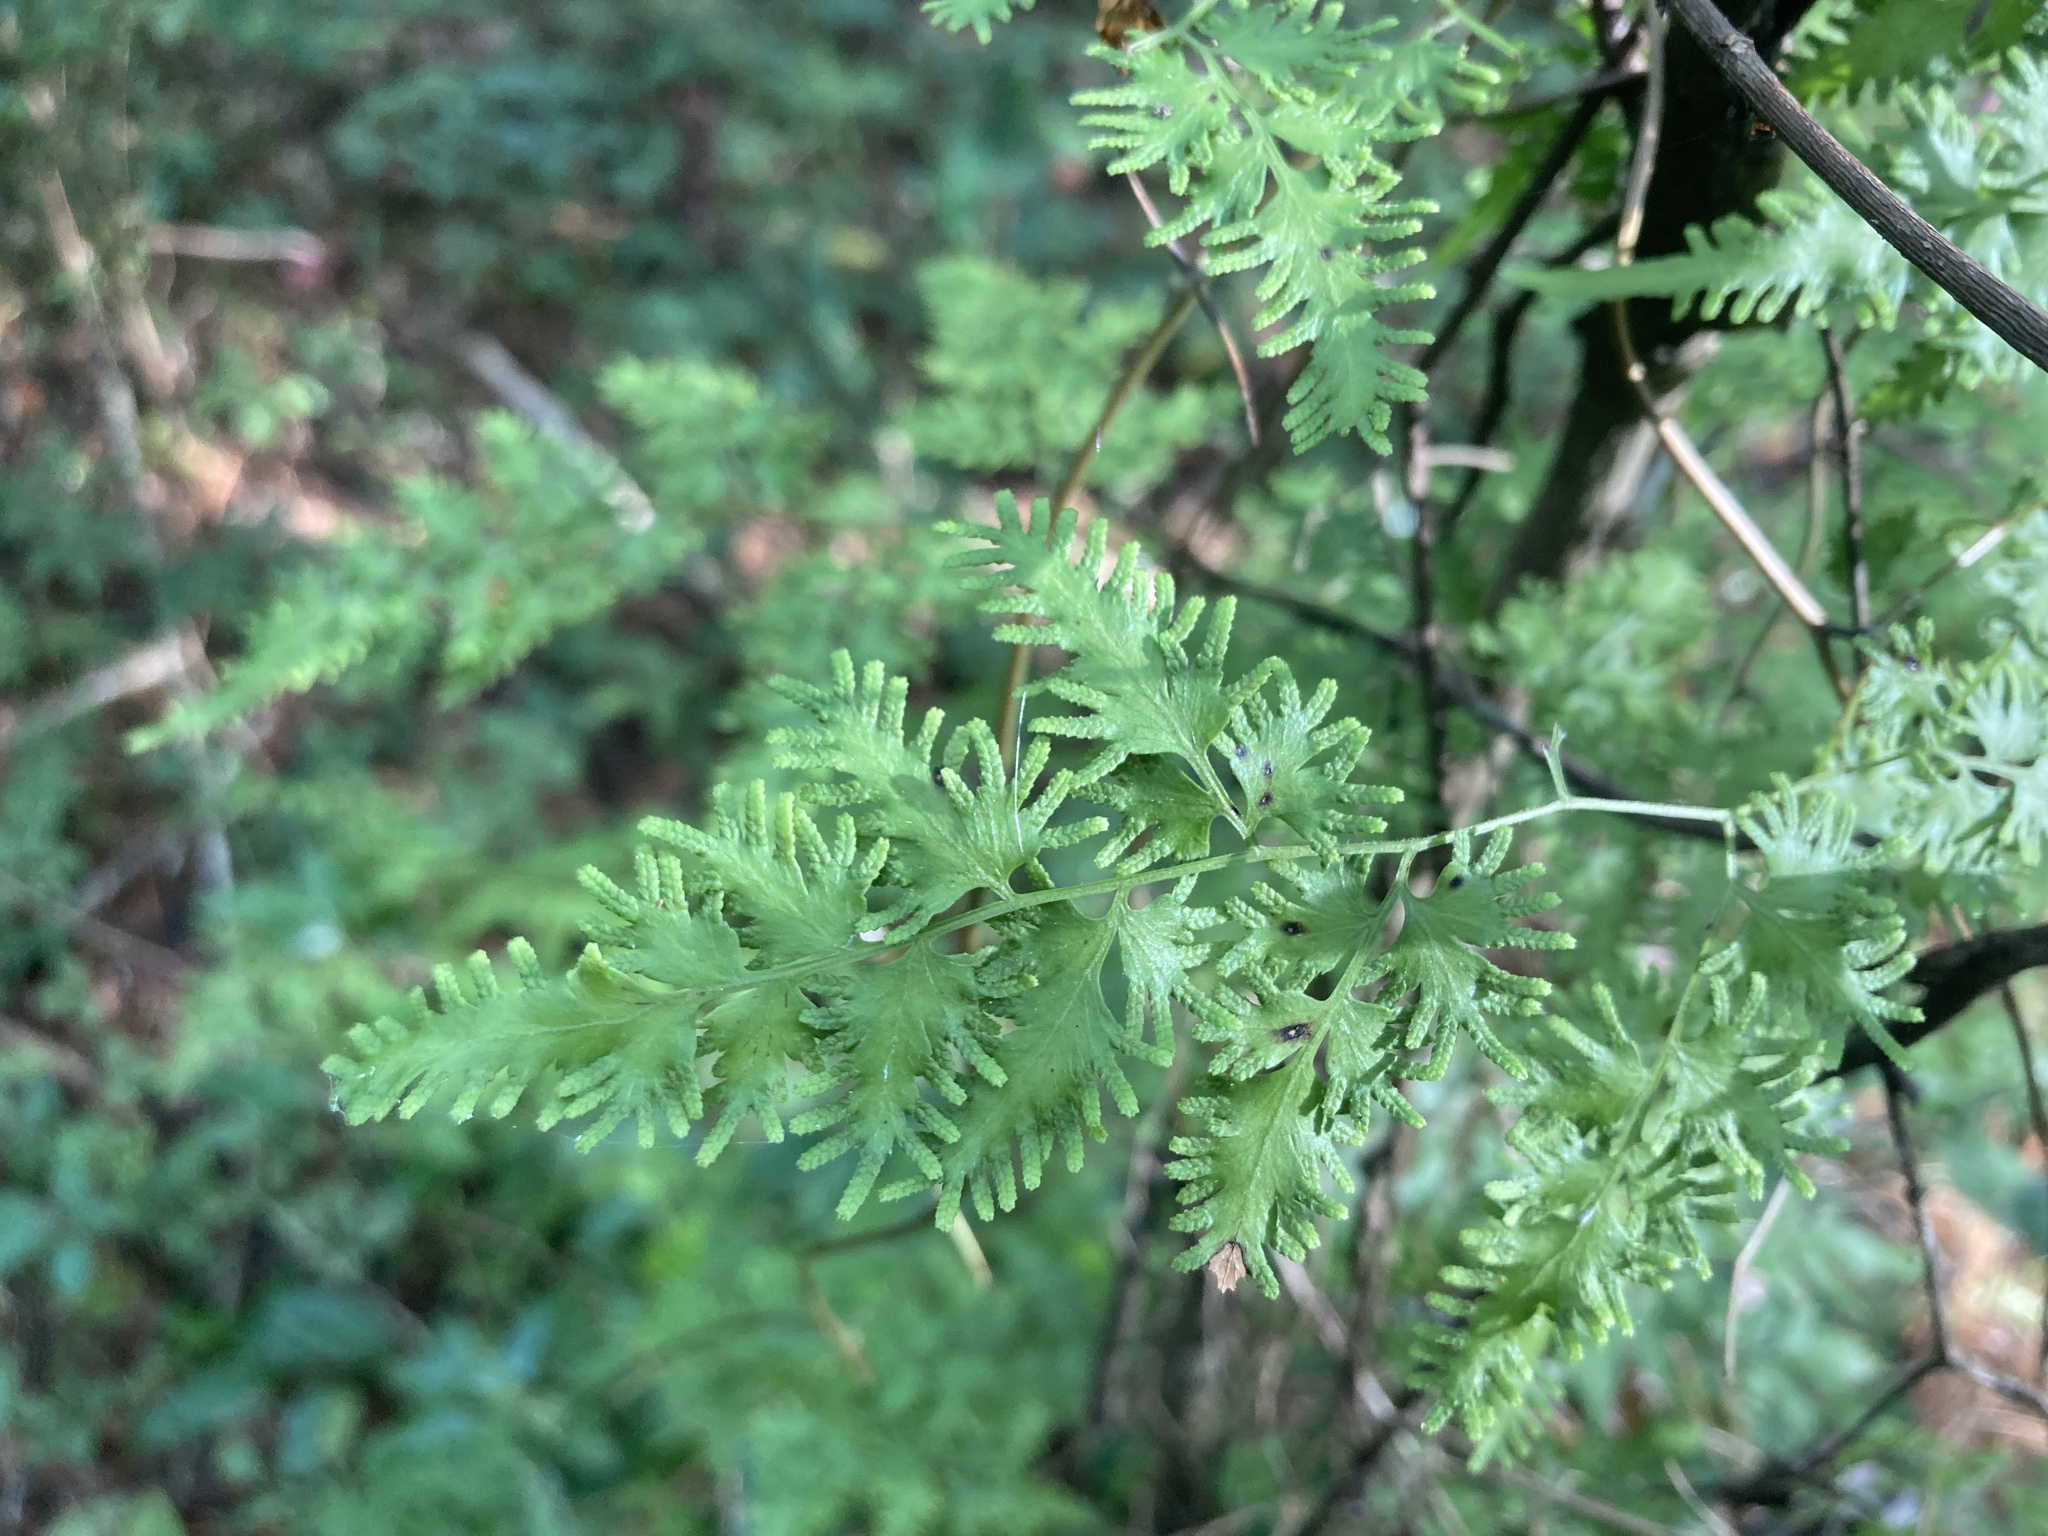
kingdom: Plantae
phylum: Tracheophyta
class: Polypodiopsida
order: Schizaeales
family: Lygodiaceae
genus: Lygodium
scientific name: Lygodium japonicum
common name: Japanese climbing fern
